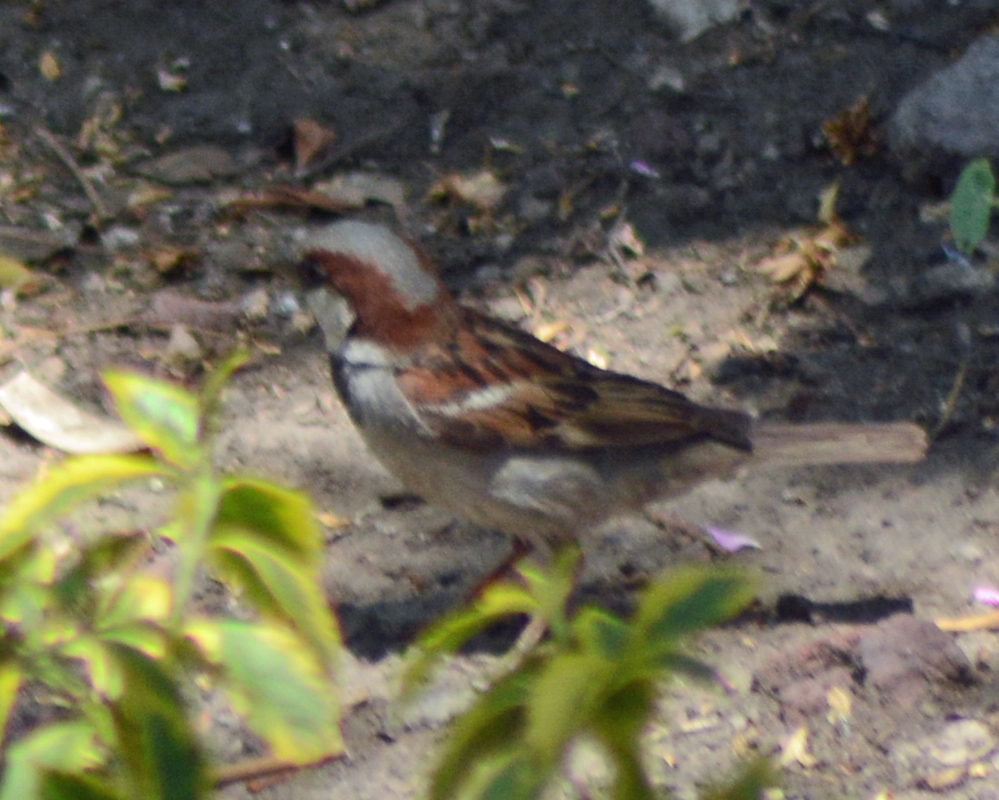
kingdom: Animalia
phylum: Chordata
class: Aves
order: Passeriformes
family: Passeridae
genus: Passer
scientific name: Passer domesticus
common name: House sparrow
